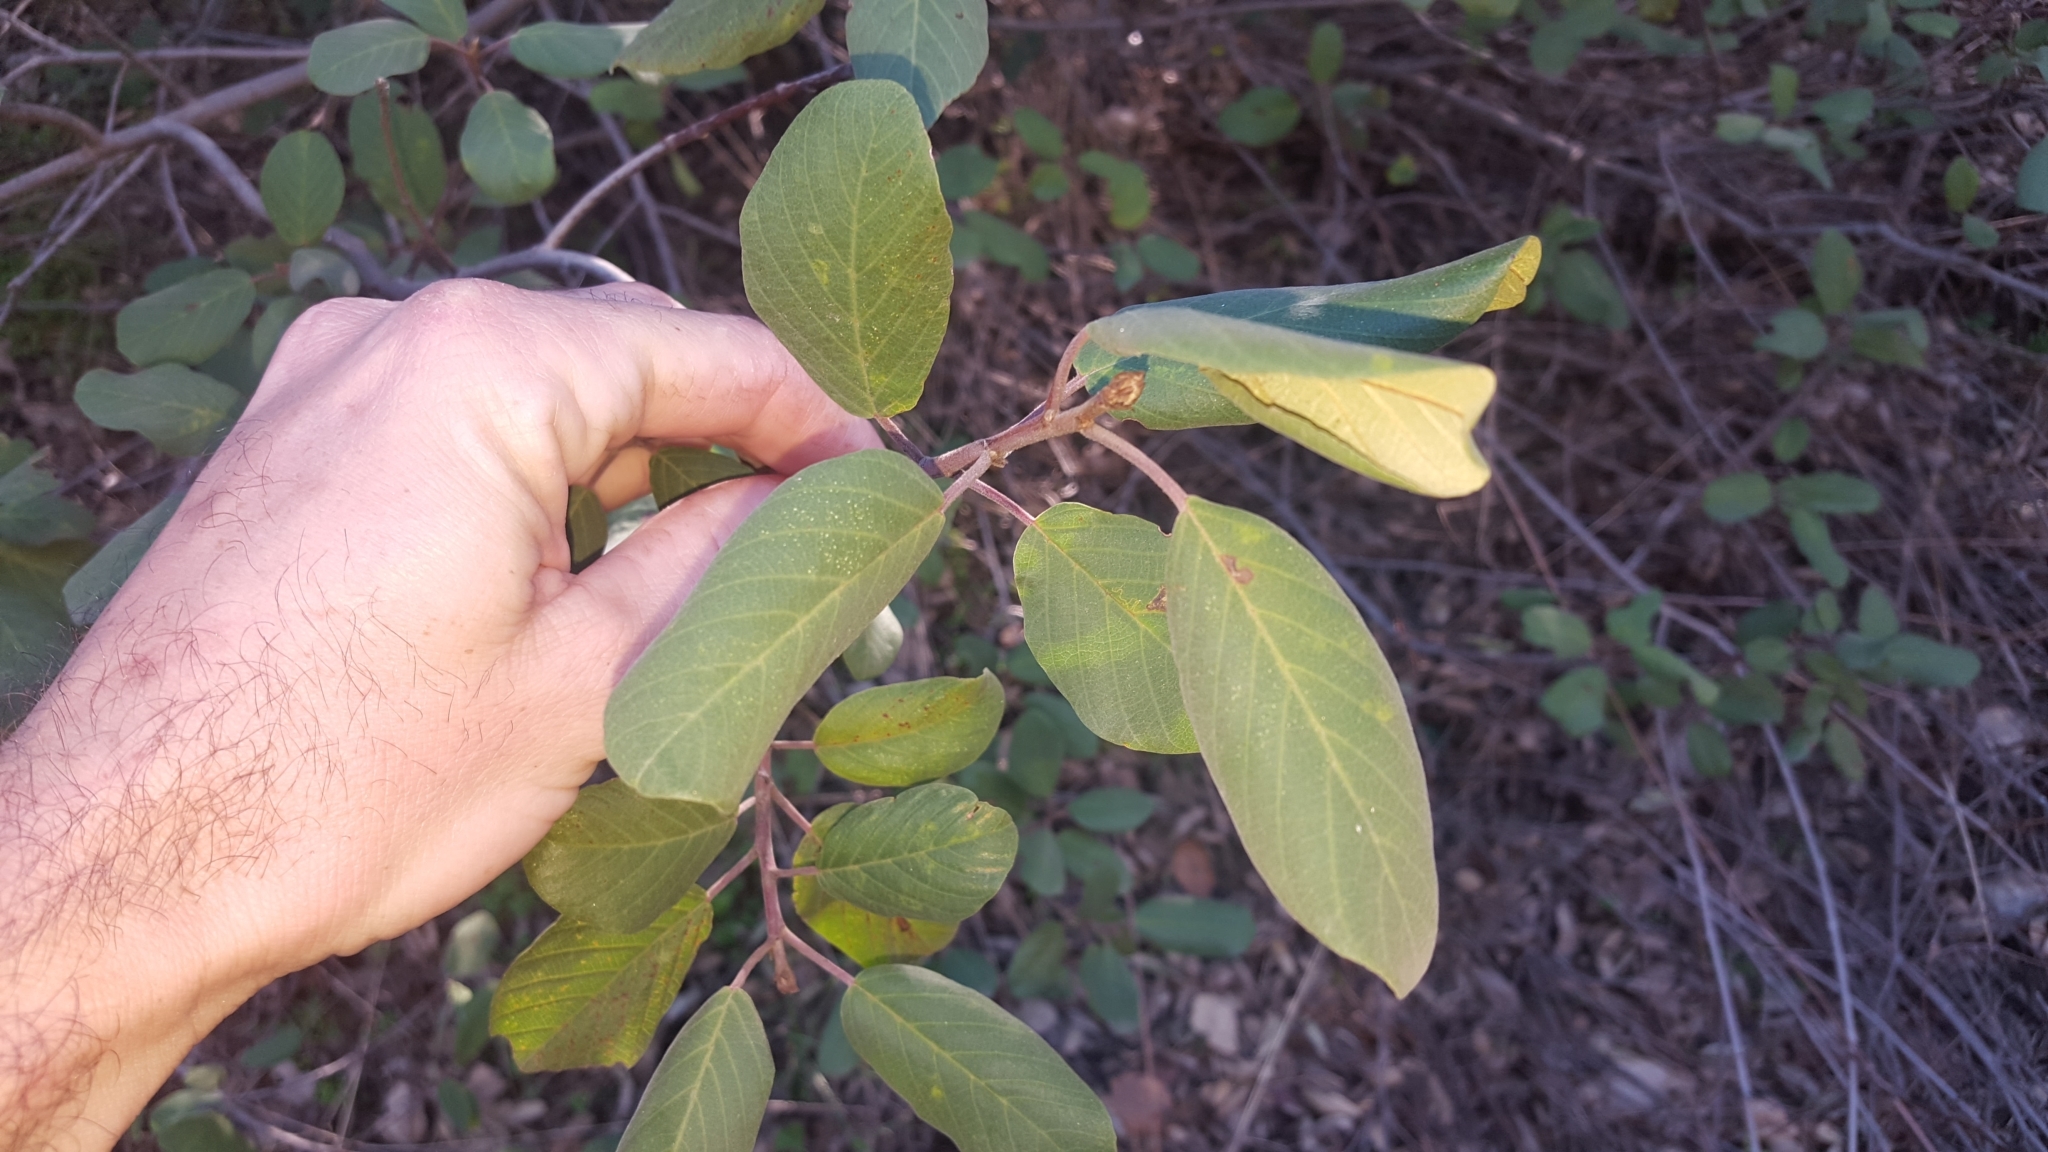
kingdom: Plantae
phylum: Tracheophyta
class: Magnoliopsida
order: Rosales
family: Rhamnaceae
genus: Frangula
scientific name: Frangula californica
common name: California buckthorn
